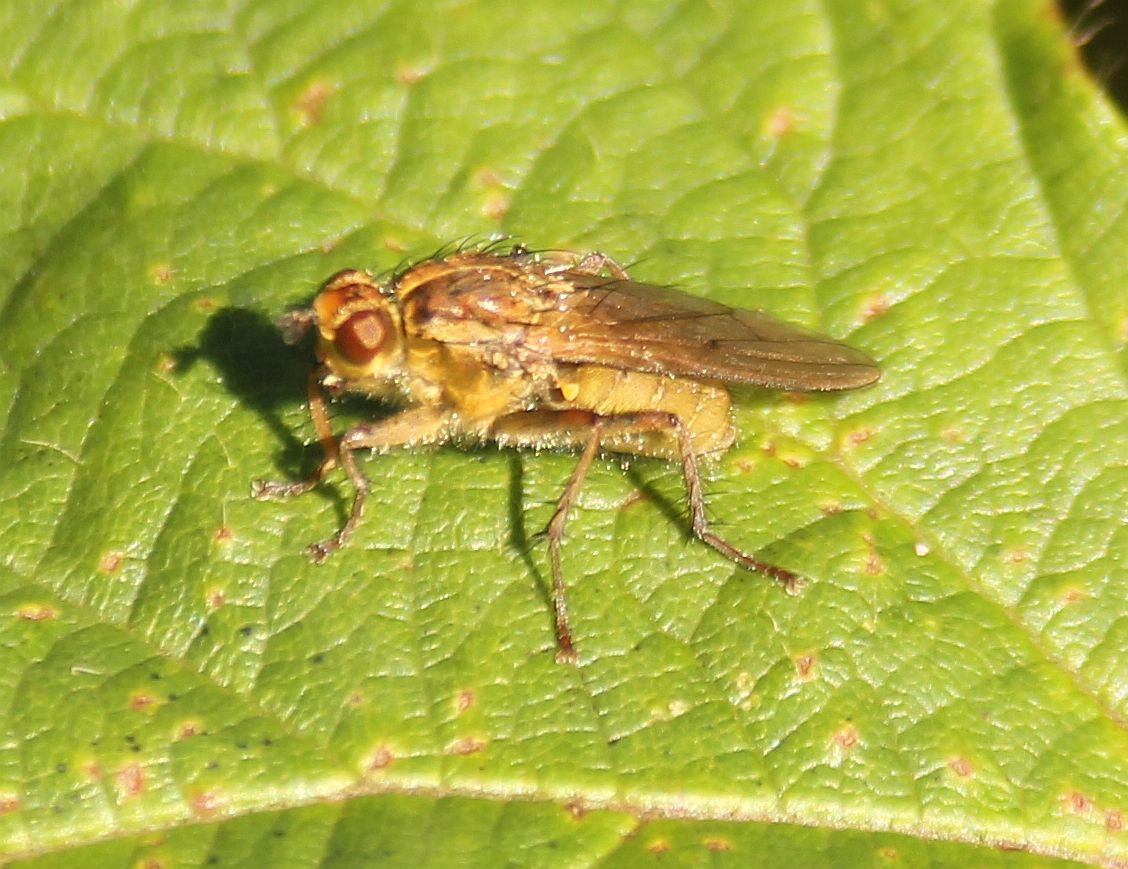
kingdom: Animalia
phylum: Arthropoda
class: Insecta
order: Diptera
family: Scathophagidae
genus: Scathophaga
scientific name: Scathophaga stercoraria
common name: Yellow dung fly
